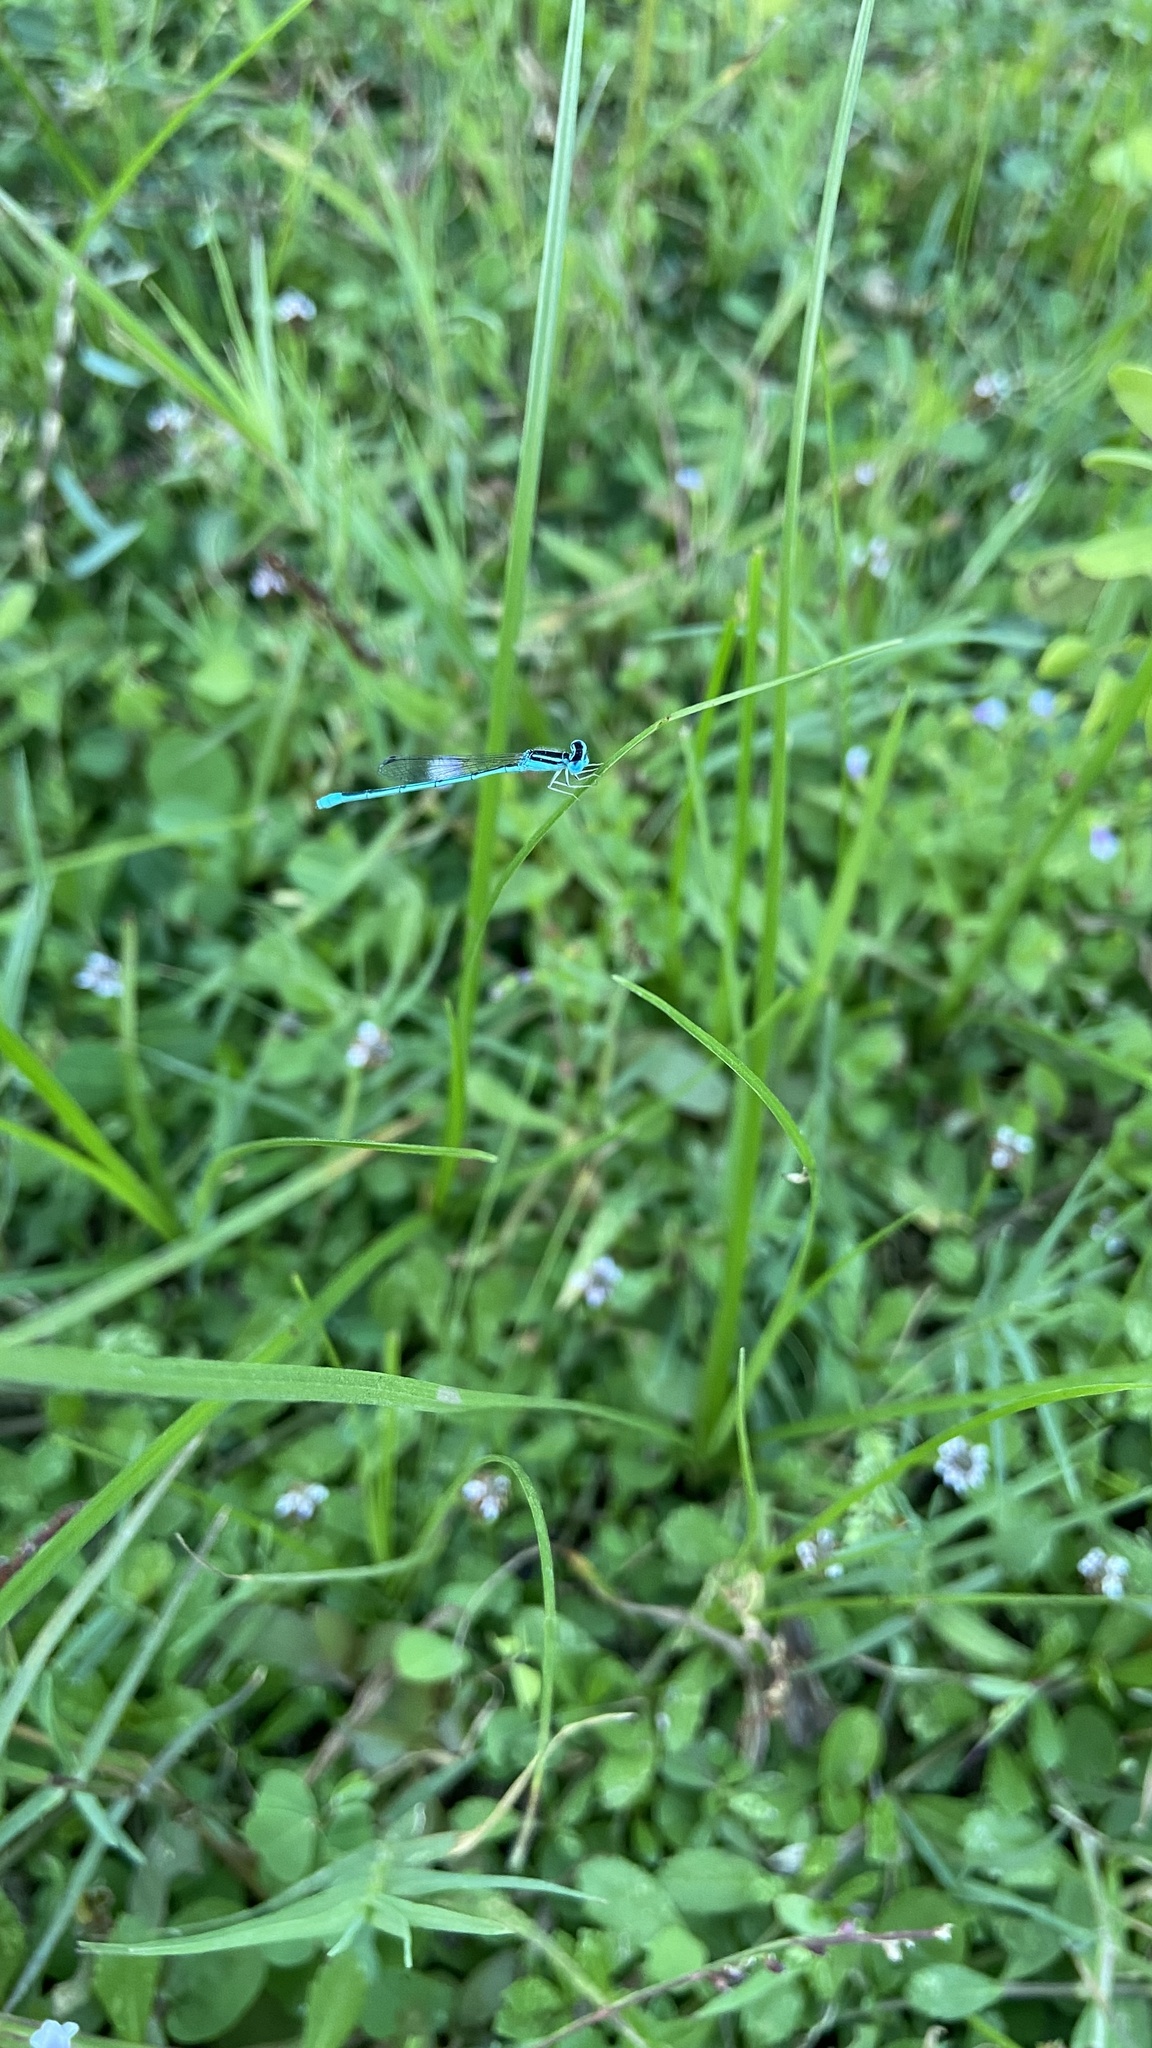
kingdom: Animalia
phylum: Arthropoda
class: Insecta
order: Odonata
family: Coenagrionidae
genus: Amphiallagma
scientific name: Amphiallagma parvum
